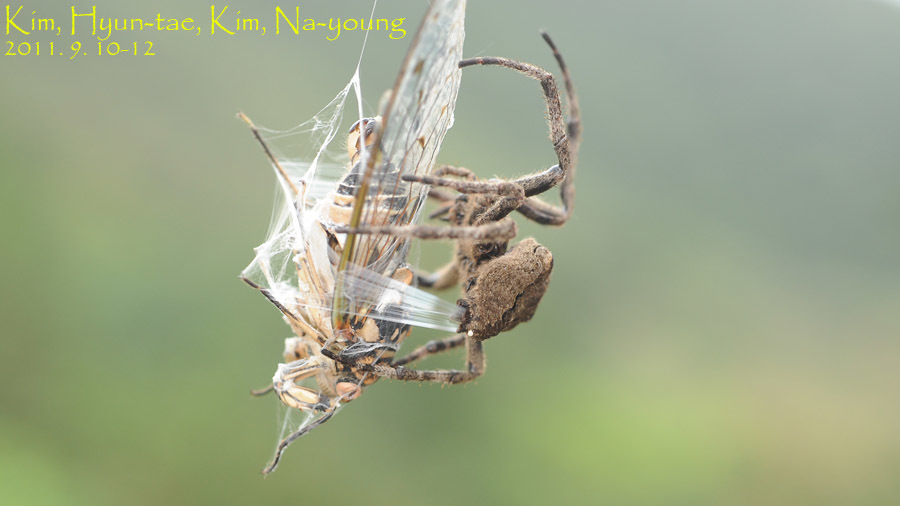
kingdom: Animalia
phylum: Arthropoda
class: Arachnida
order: Araneae
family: Araneidae
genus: Araneus
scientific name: Araneus ventricosus
